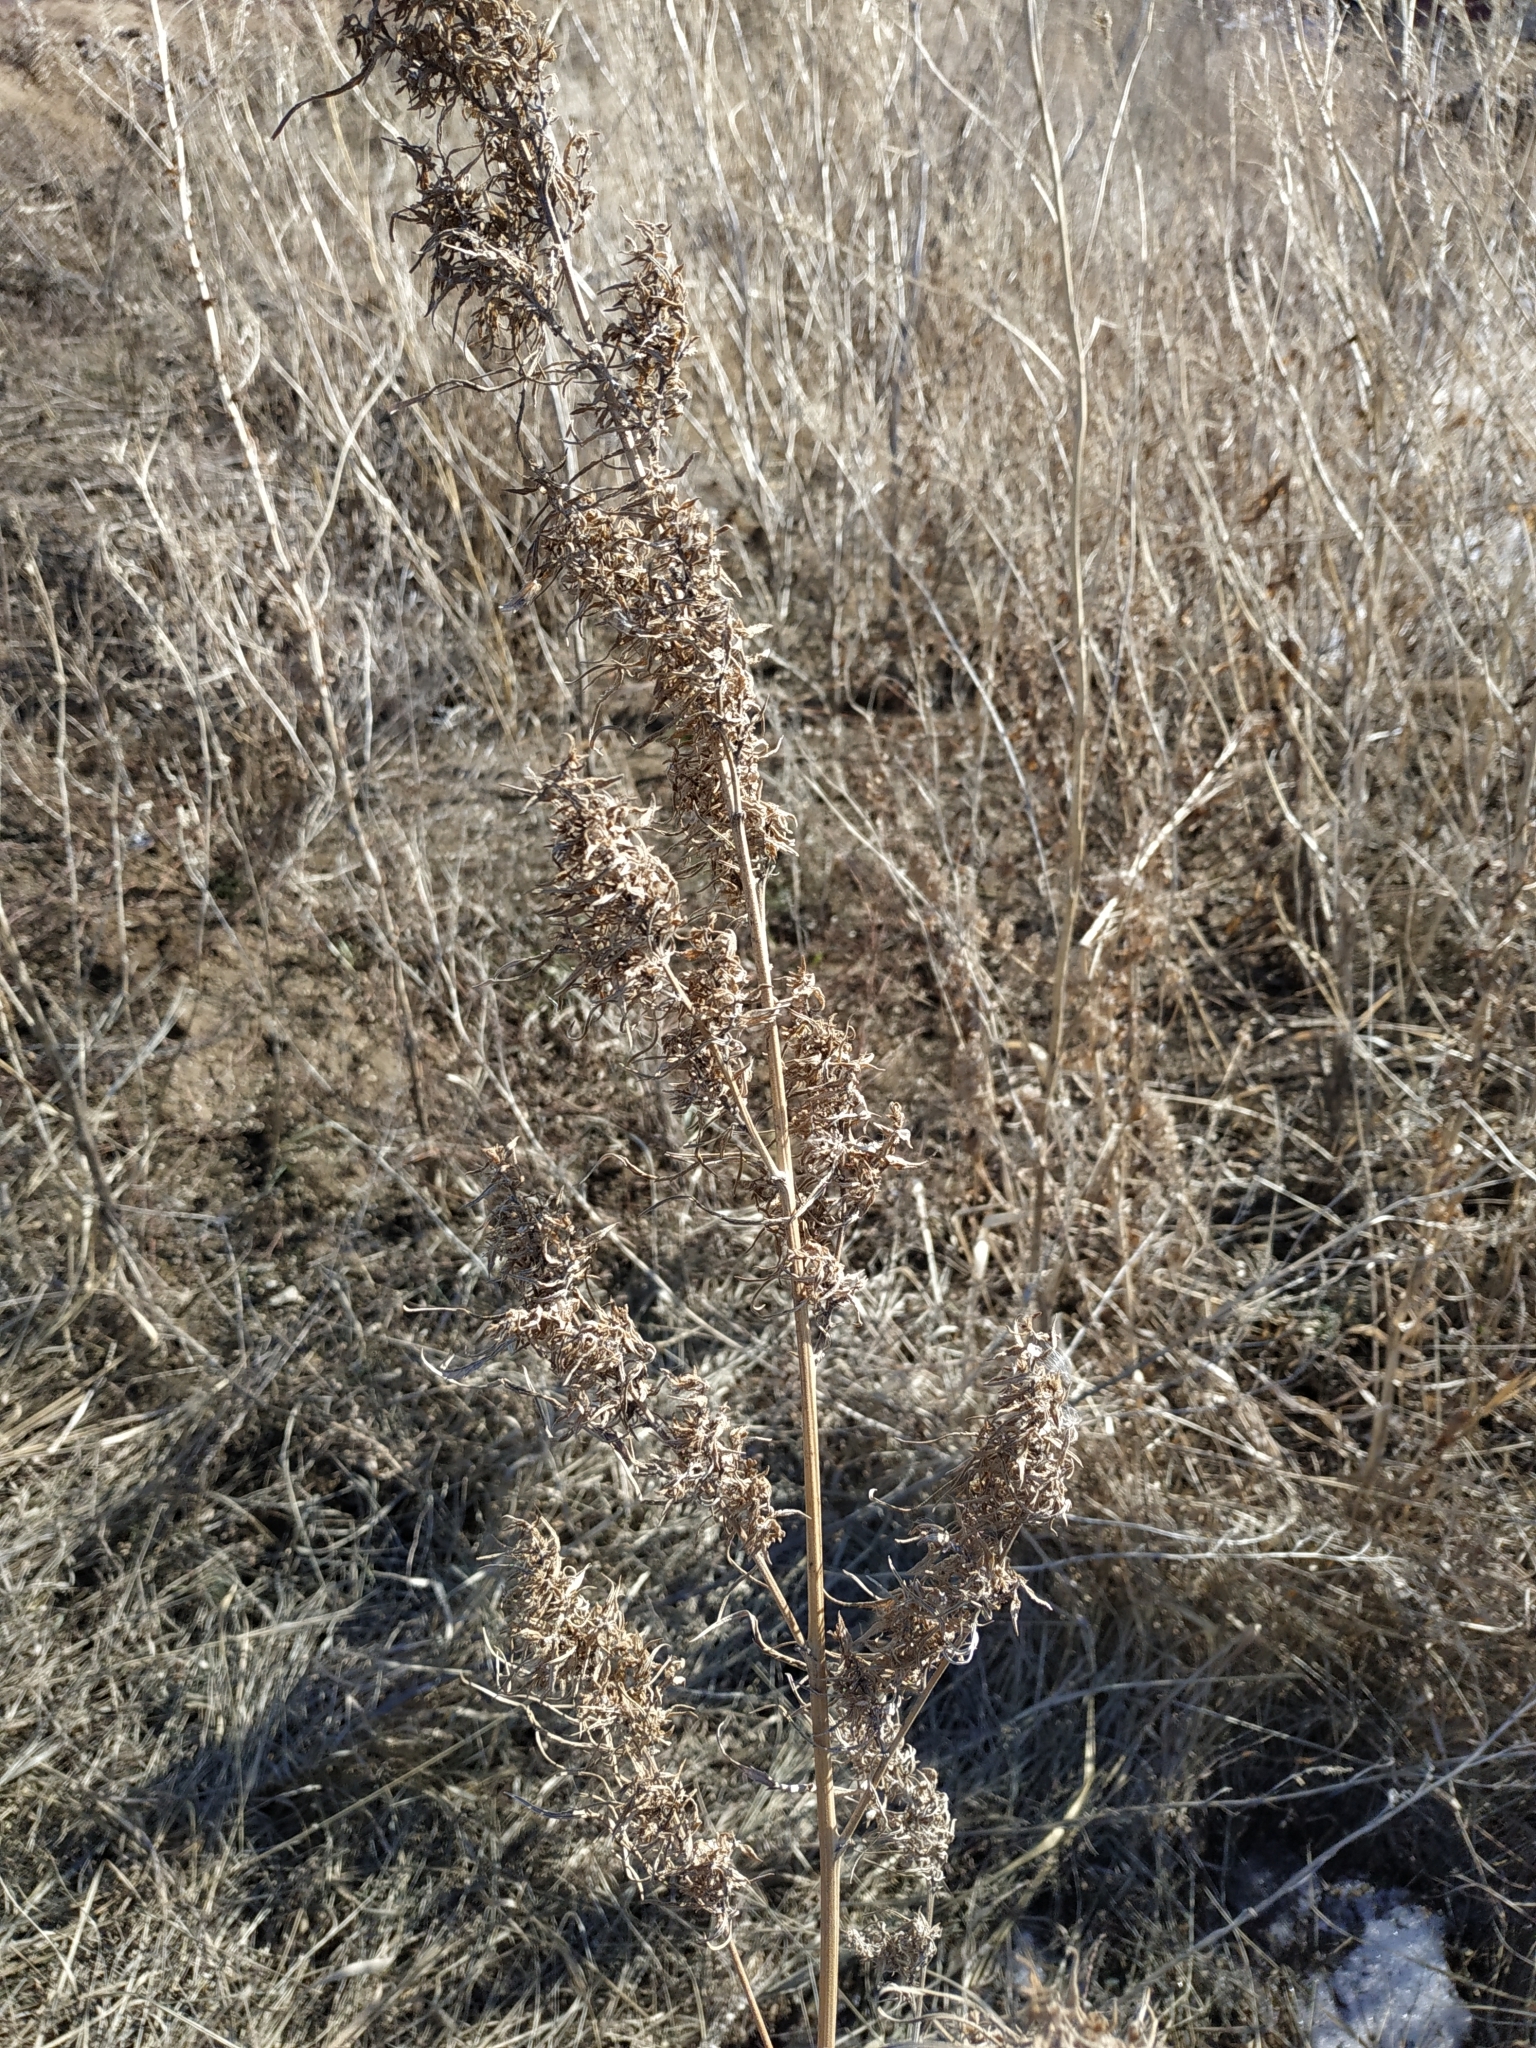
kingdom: Plantae
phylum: Tracheophyta
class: Magnoliopsida
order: Rosales
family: Cannabaceae
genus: Cannabis
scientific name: Cannabis sativa
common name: Hemp
